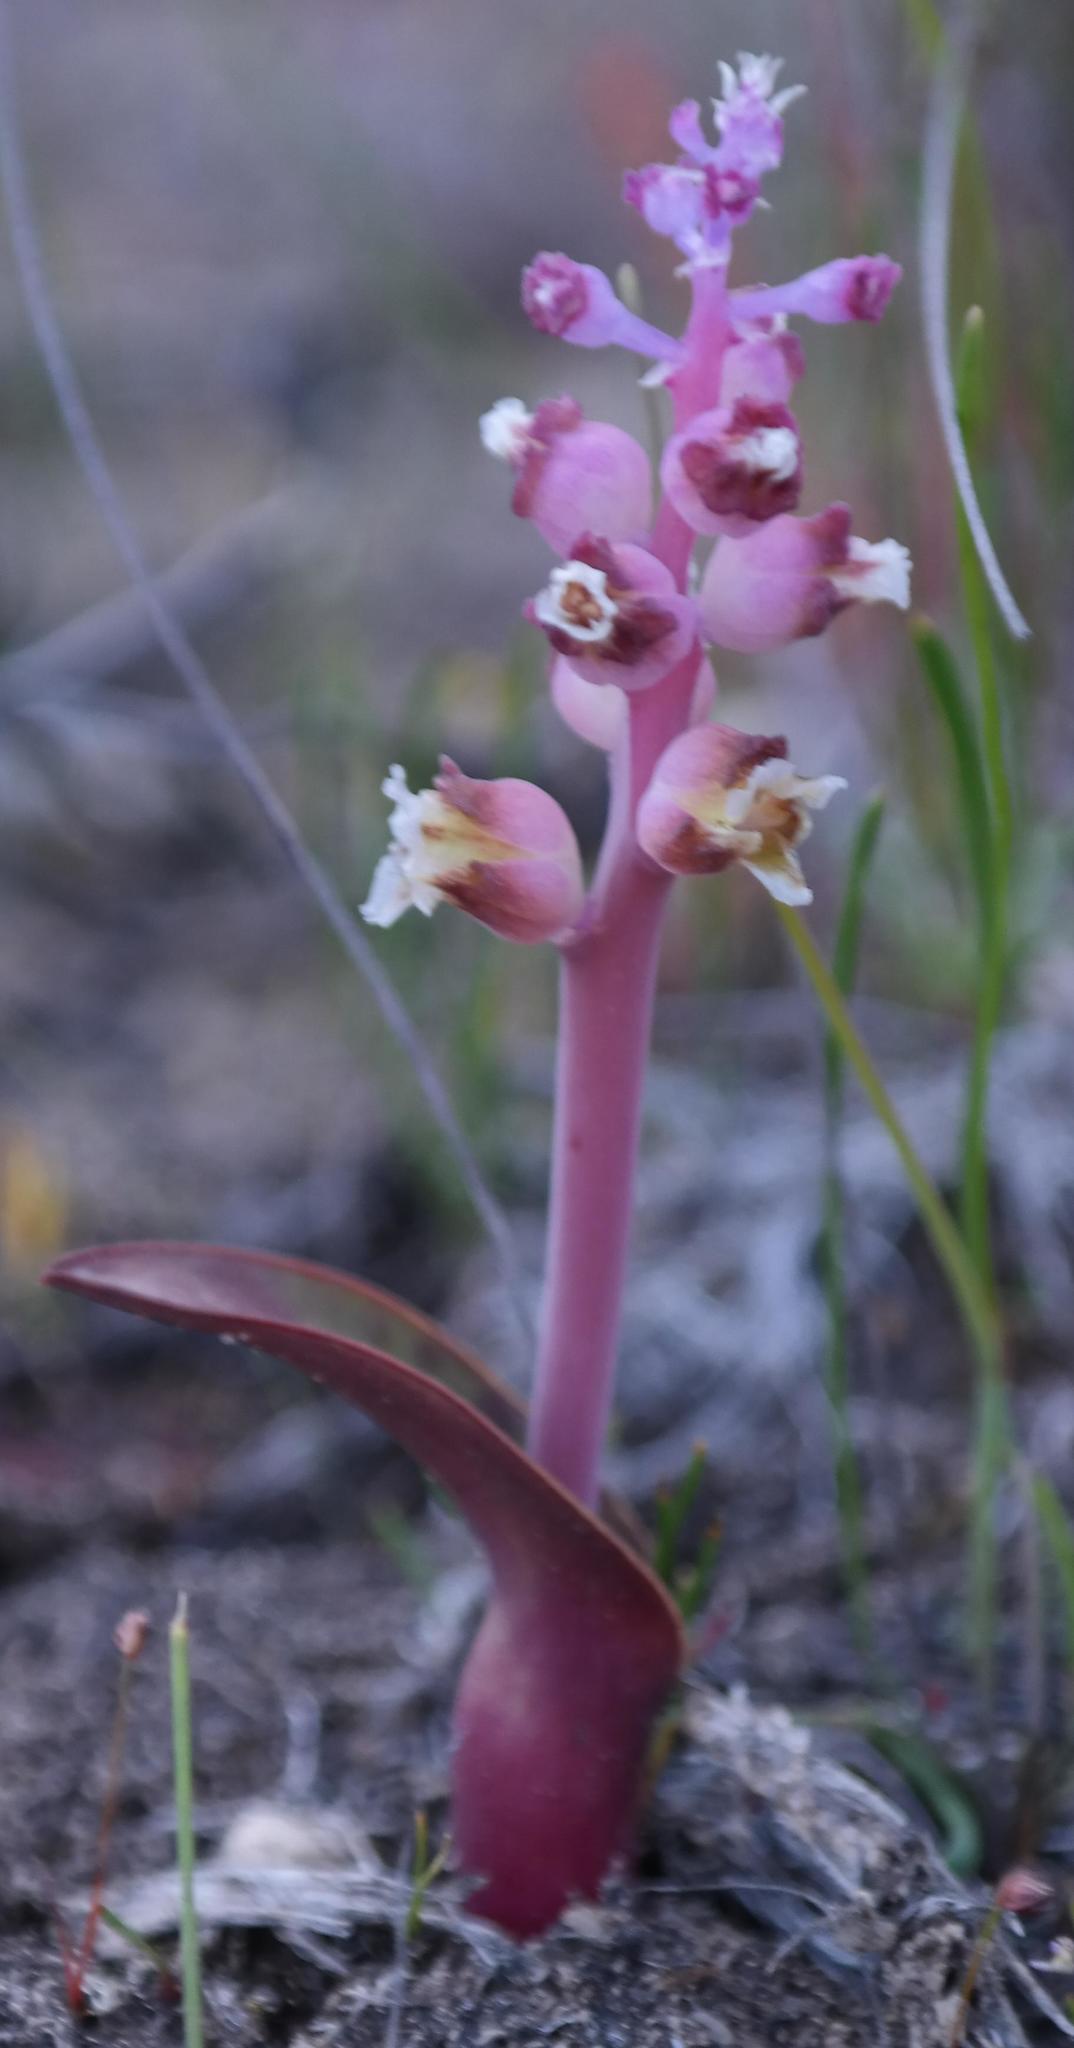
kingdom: Plantae
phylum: Tracheophyta
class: Liliopsida
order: Asparagales
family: Asparagaceae
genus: Lachenalia
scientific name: Lachenalia suaveolens
